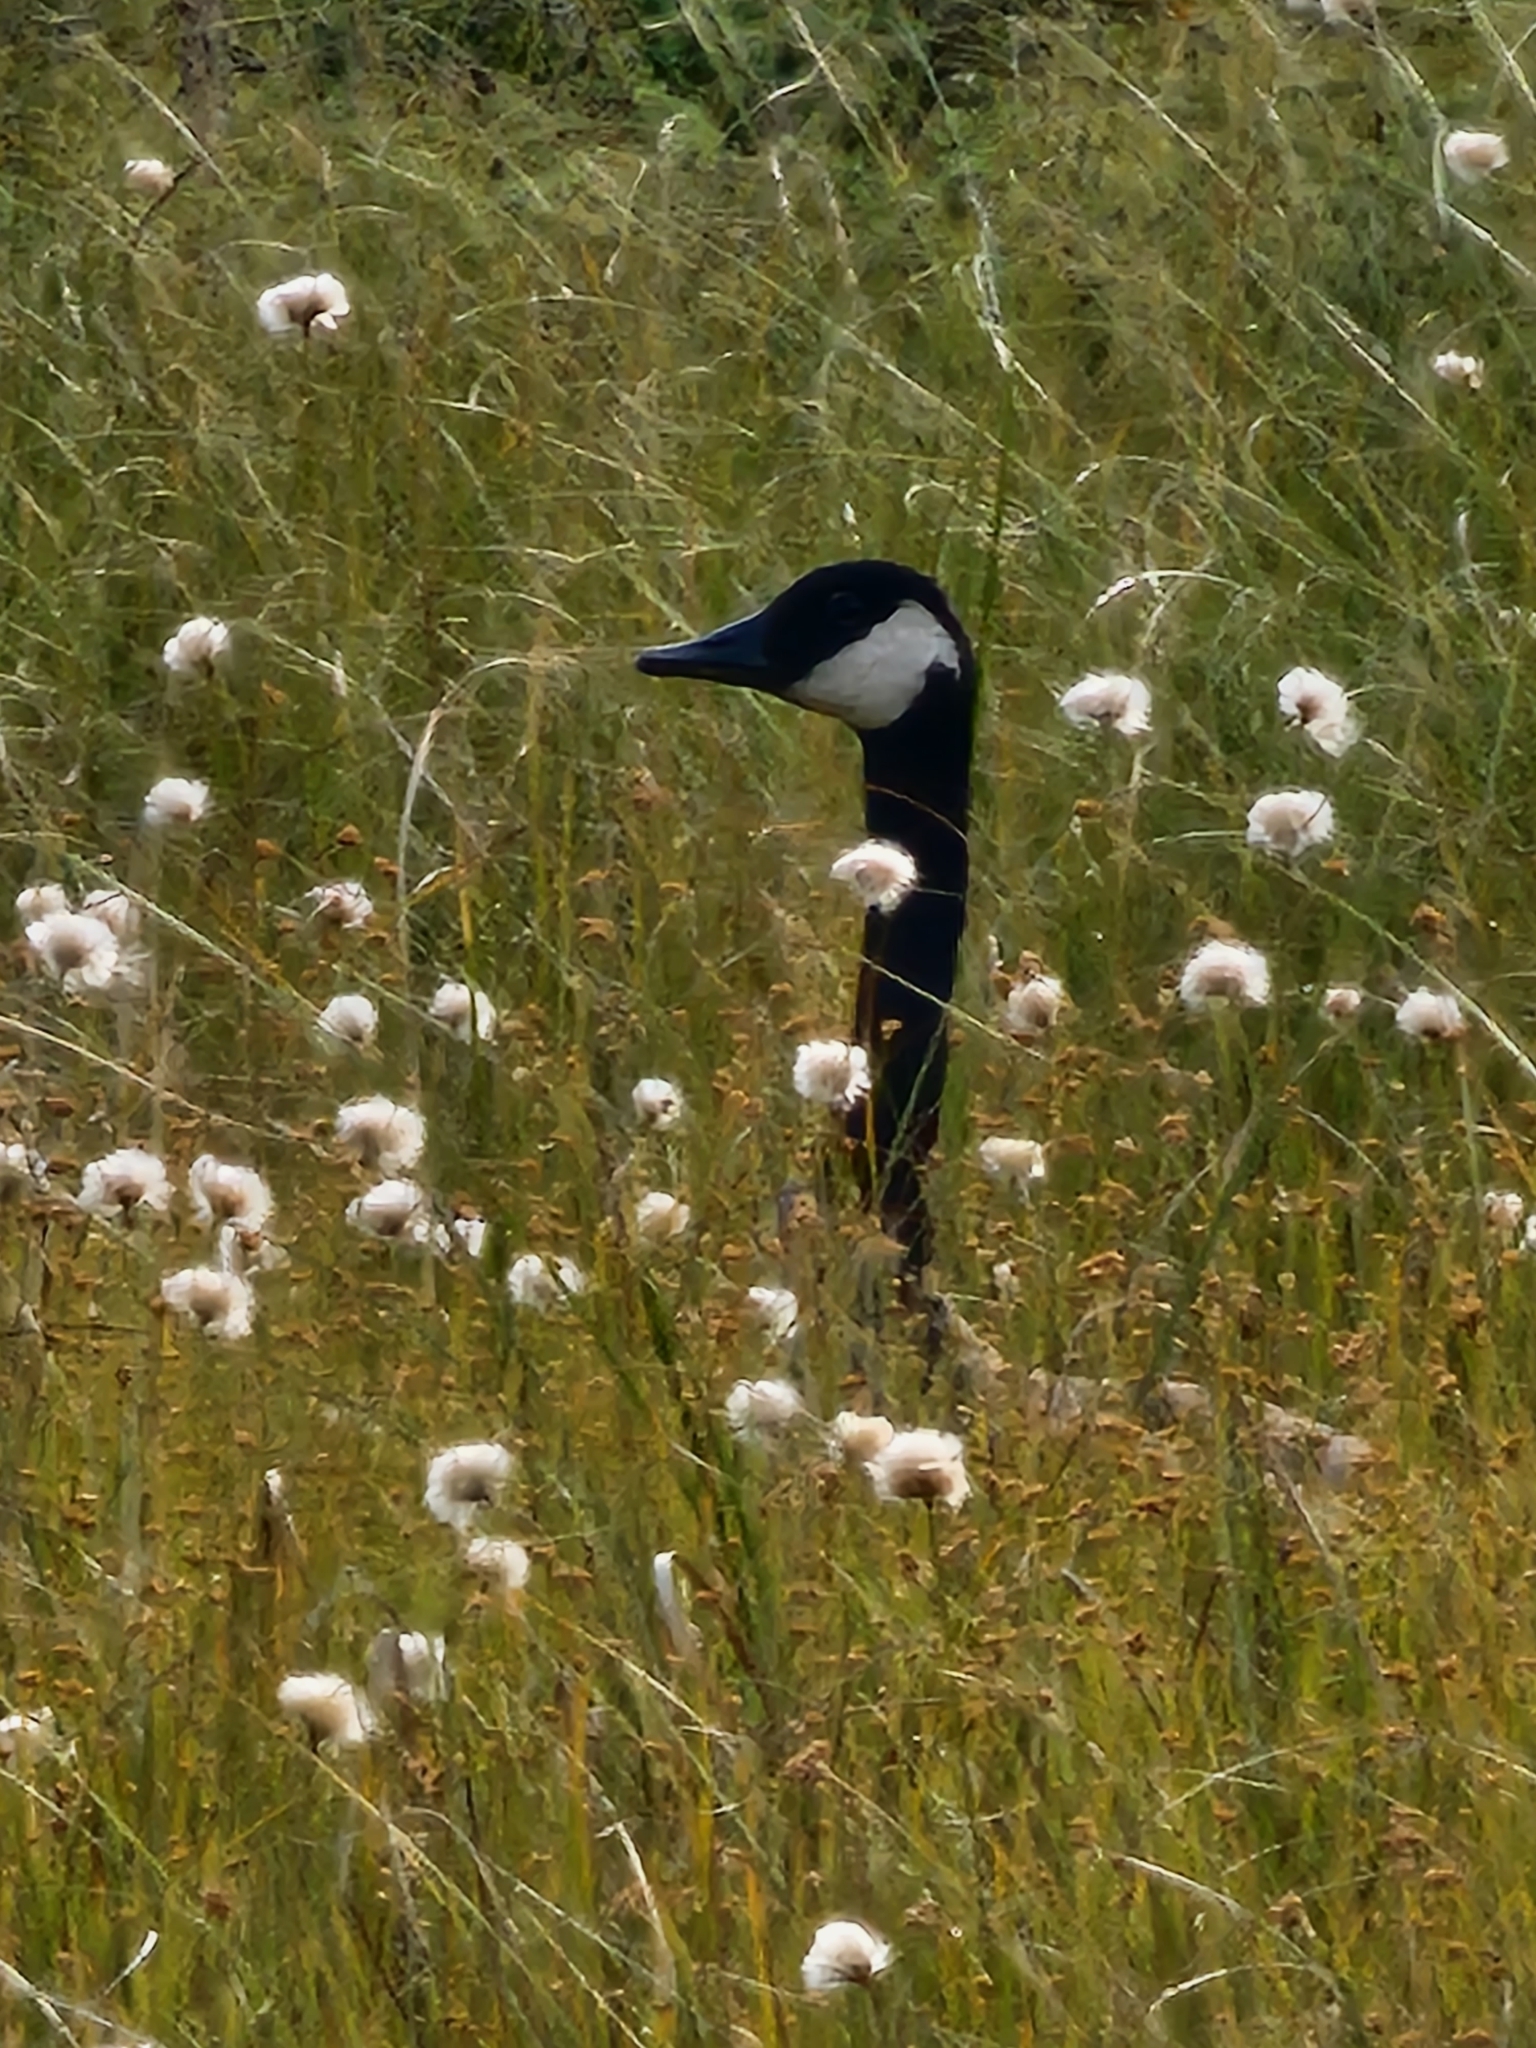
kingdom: Animalia
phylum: Chordata
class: Aves
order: Anseriformes
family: Anatidae
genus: Branta
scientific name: Branta canadensis
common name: Canada goose
